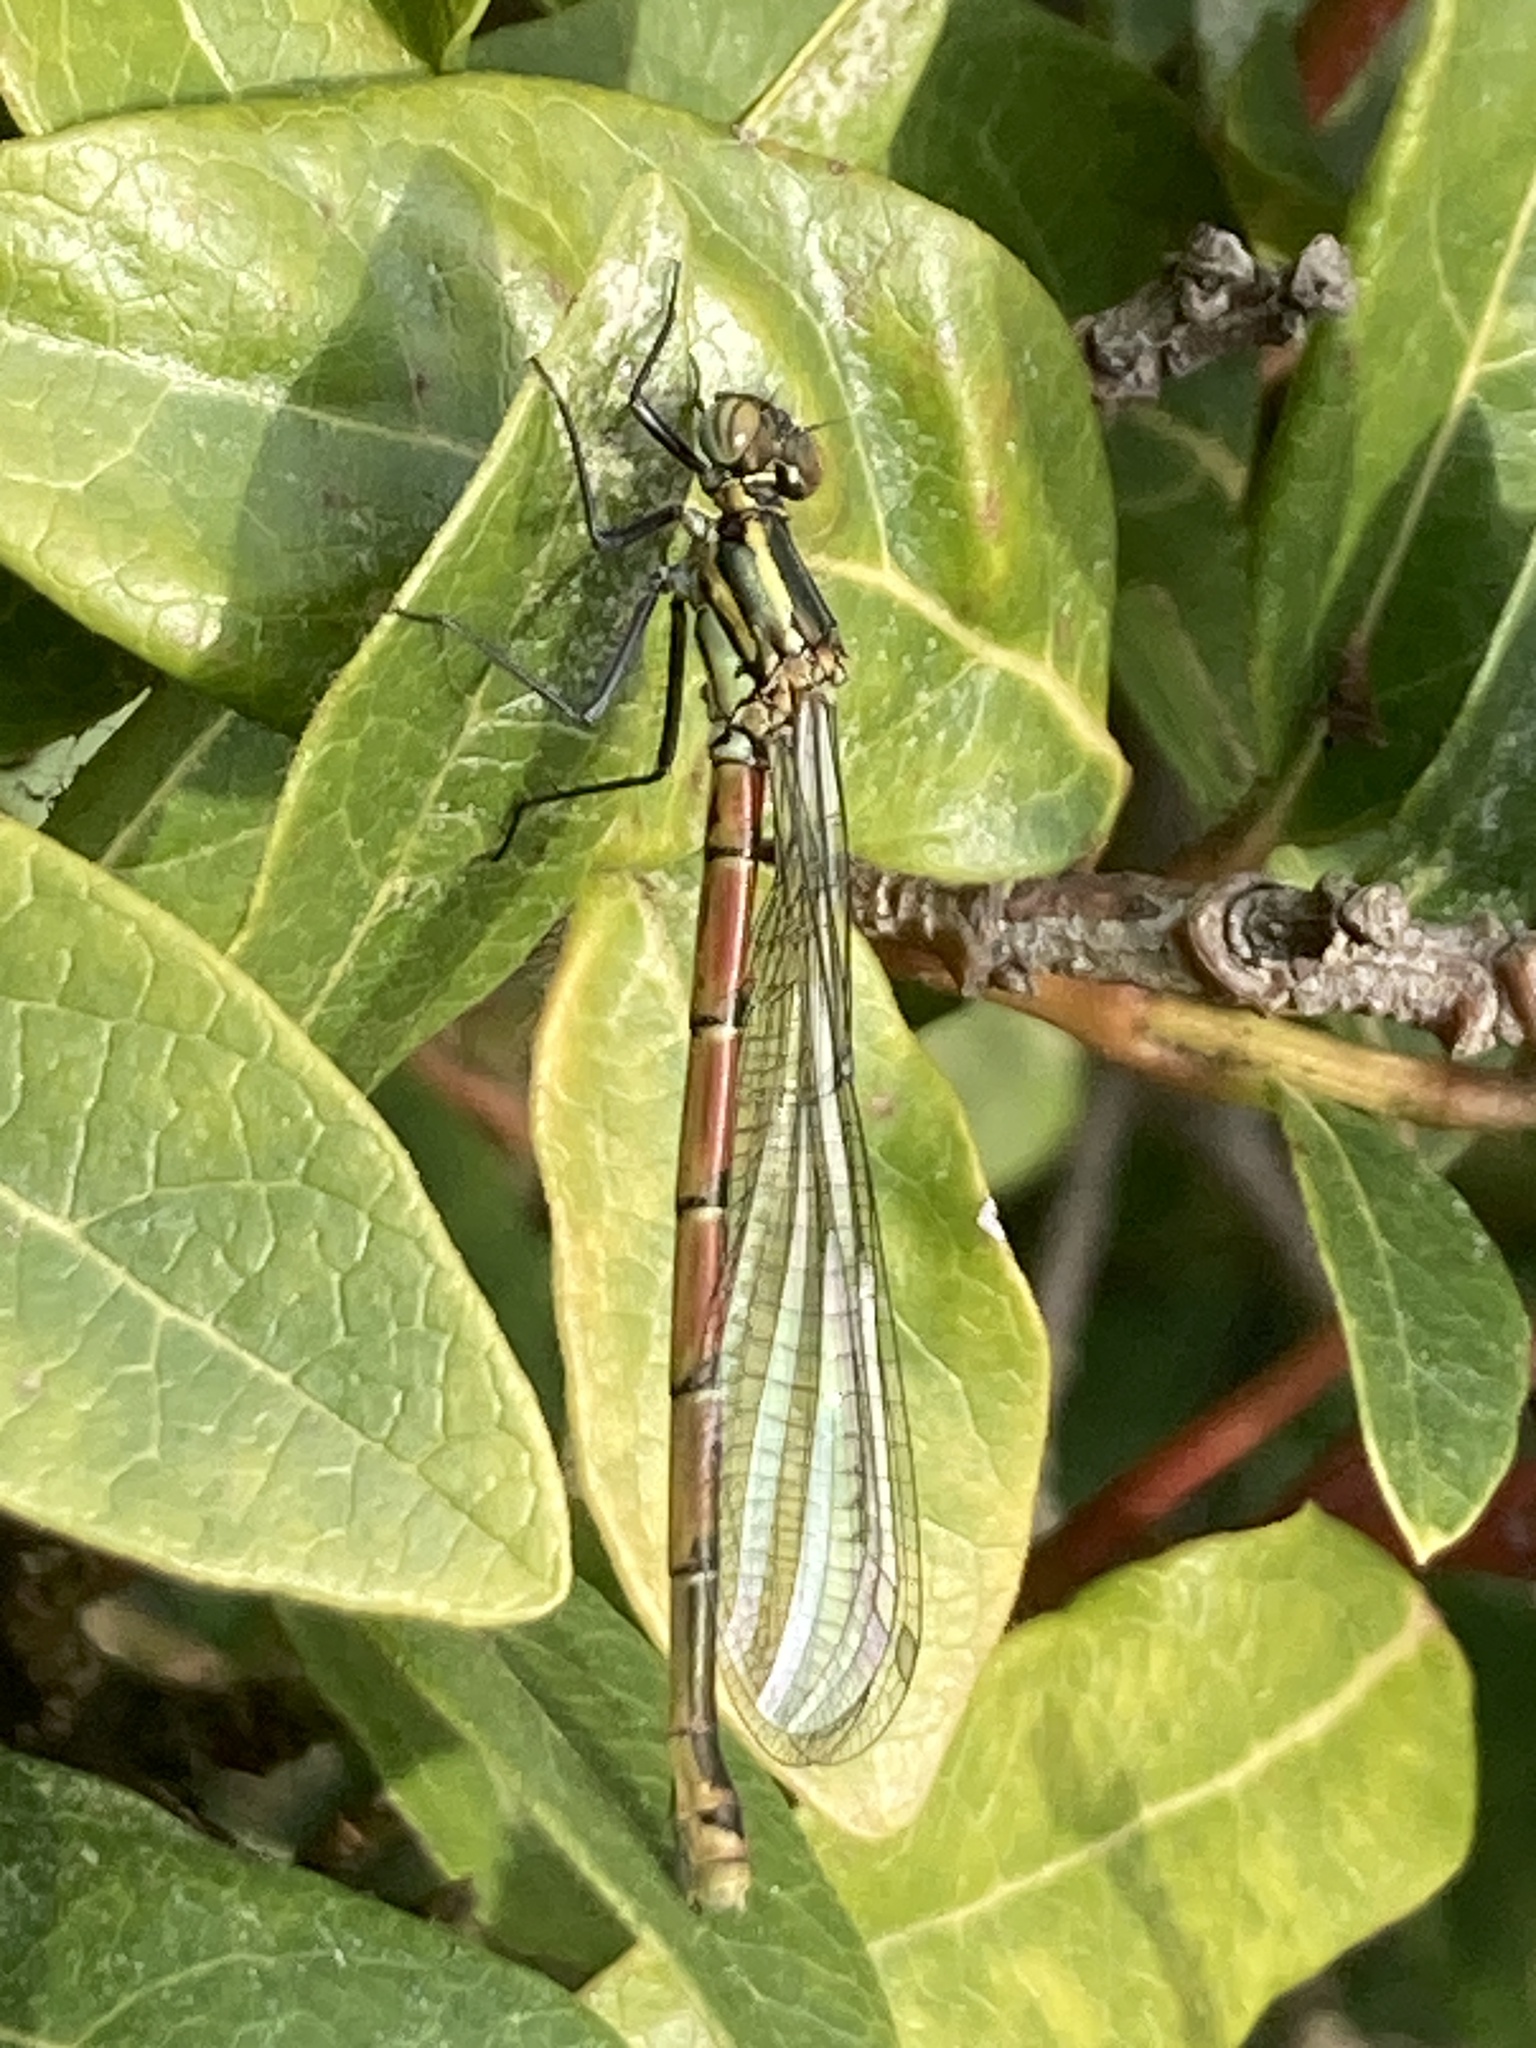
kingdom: Animalia
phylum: Arthropoda
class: Insecta
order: Odonata
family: Coenagrionidae
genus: Pyrrhosoma
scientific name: Pyrrhosoma nymphula
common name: Large red damsel
